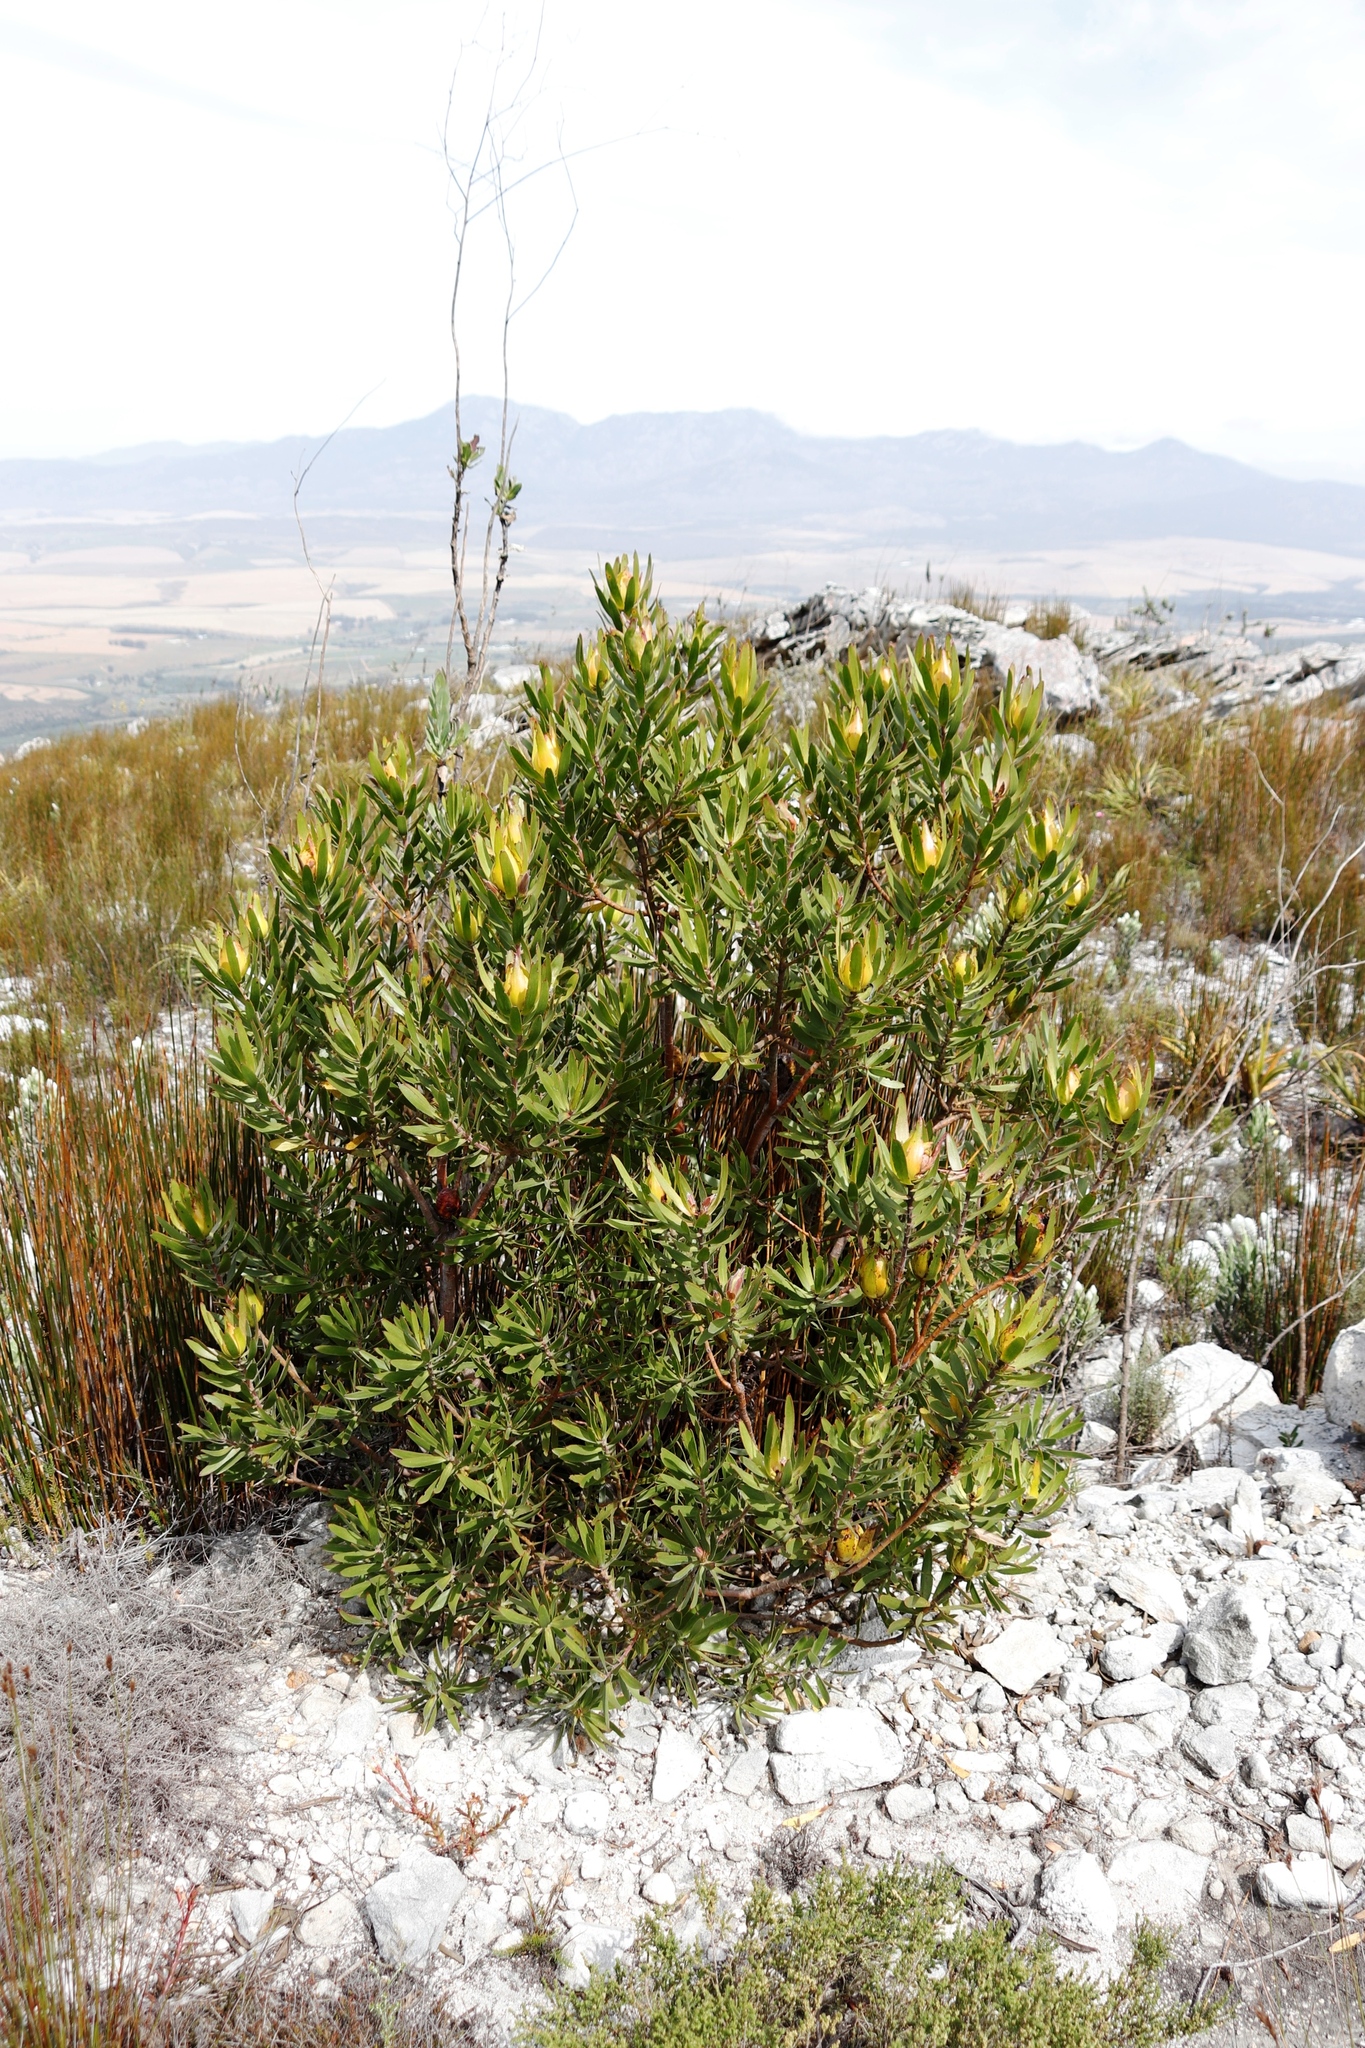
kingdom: Plantae
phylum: Tracheophyta
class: Magnoliopsida
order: Proteales
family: Proteaceae
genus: Leucadendron
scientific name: Leucadendron laureolum
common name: Golden sunshinebush
